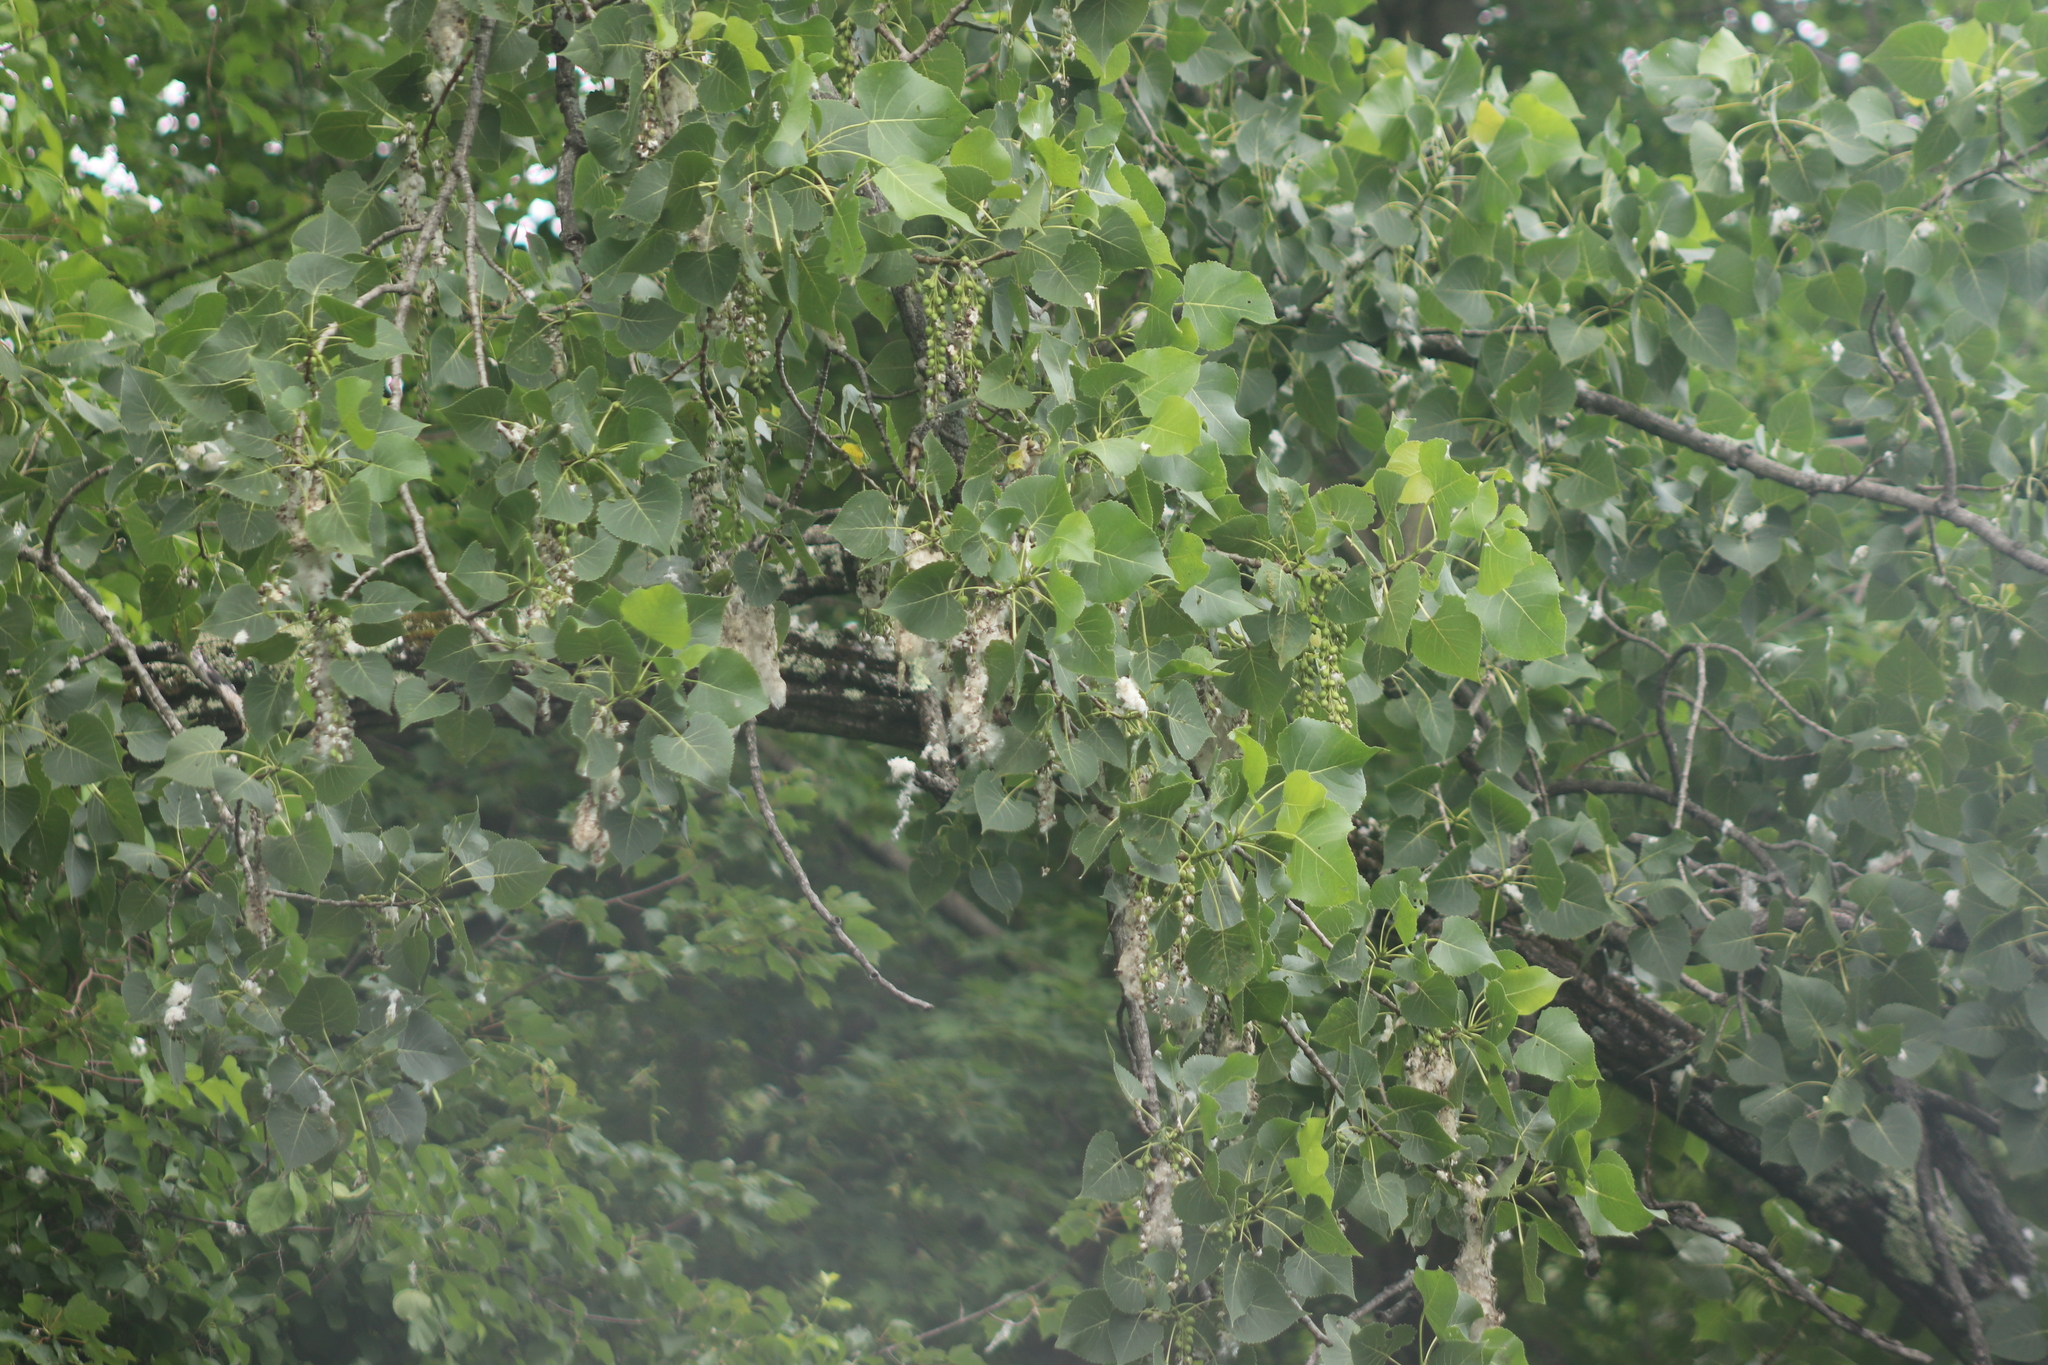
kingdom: Plantae
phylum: Tracheophyta
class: Magnoliopsida
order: Malpighiales
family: Salicaceae
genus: Populus
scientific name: Populus deltoides
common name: Eastern cottonwood
